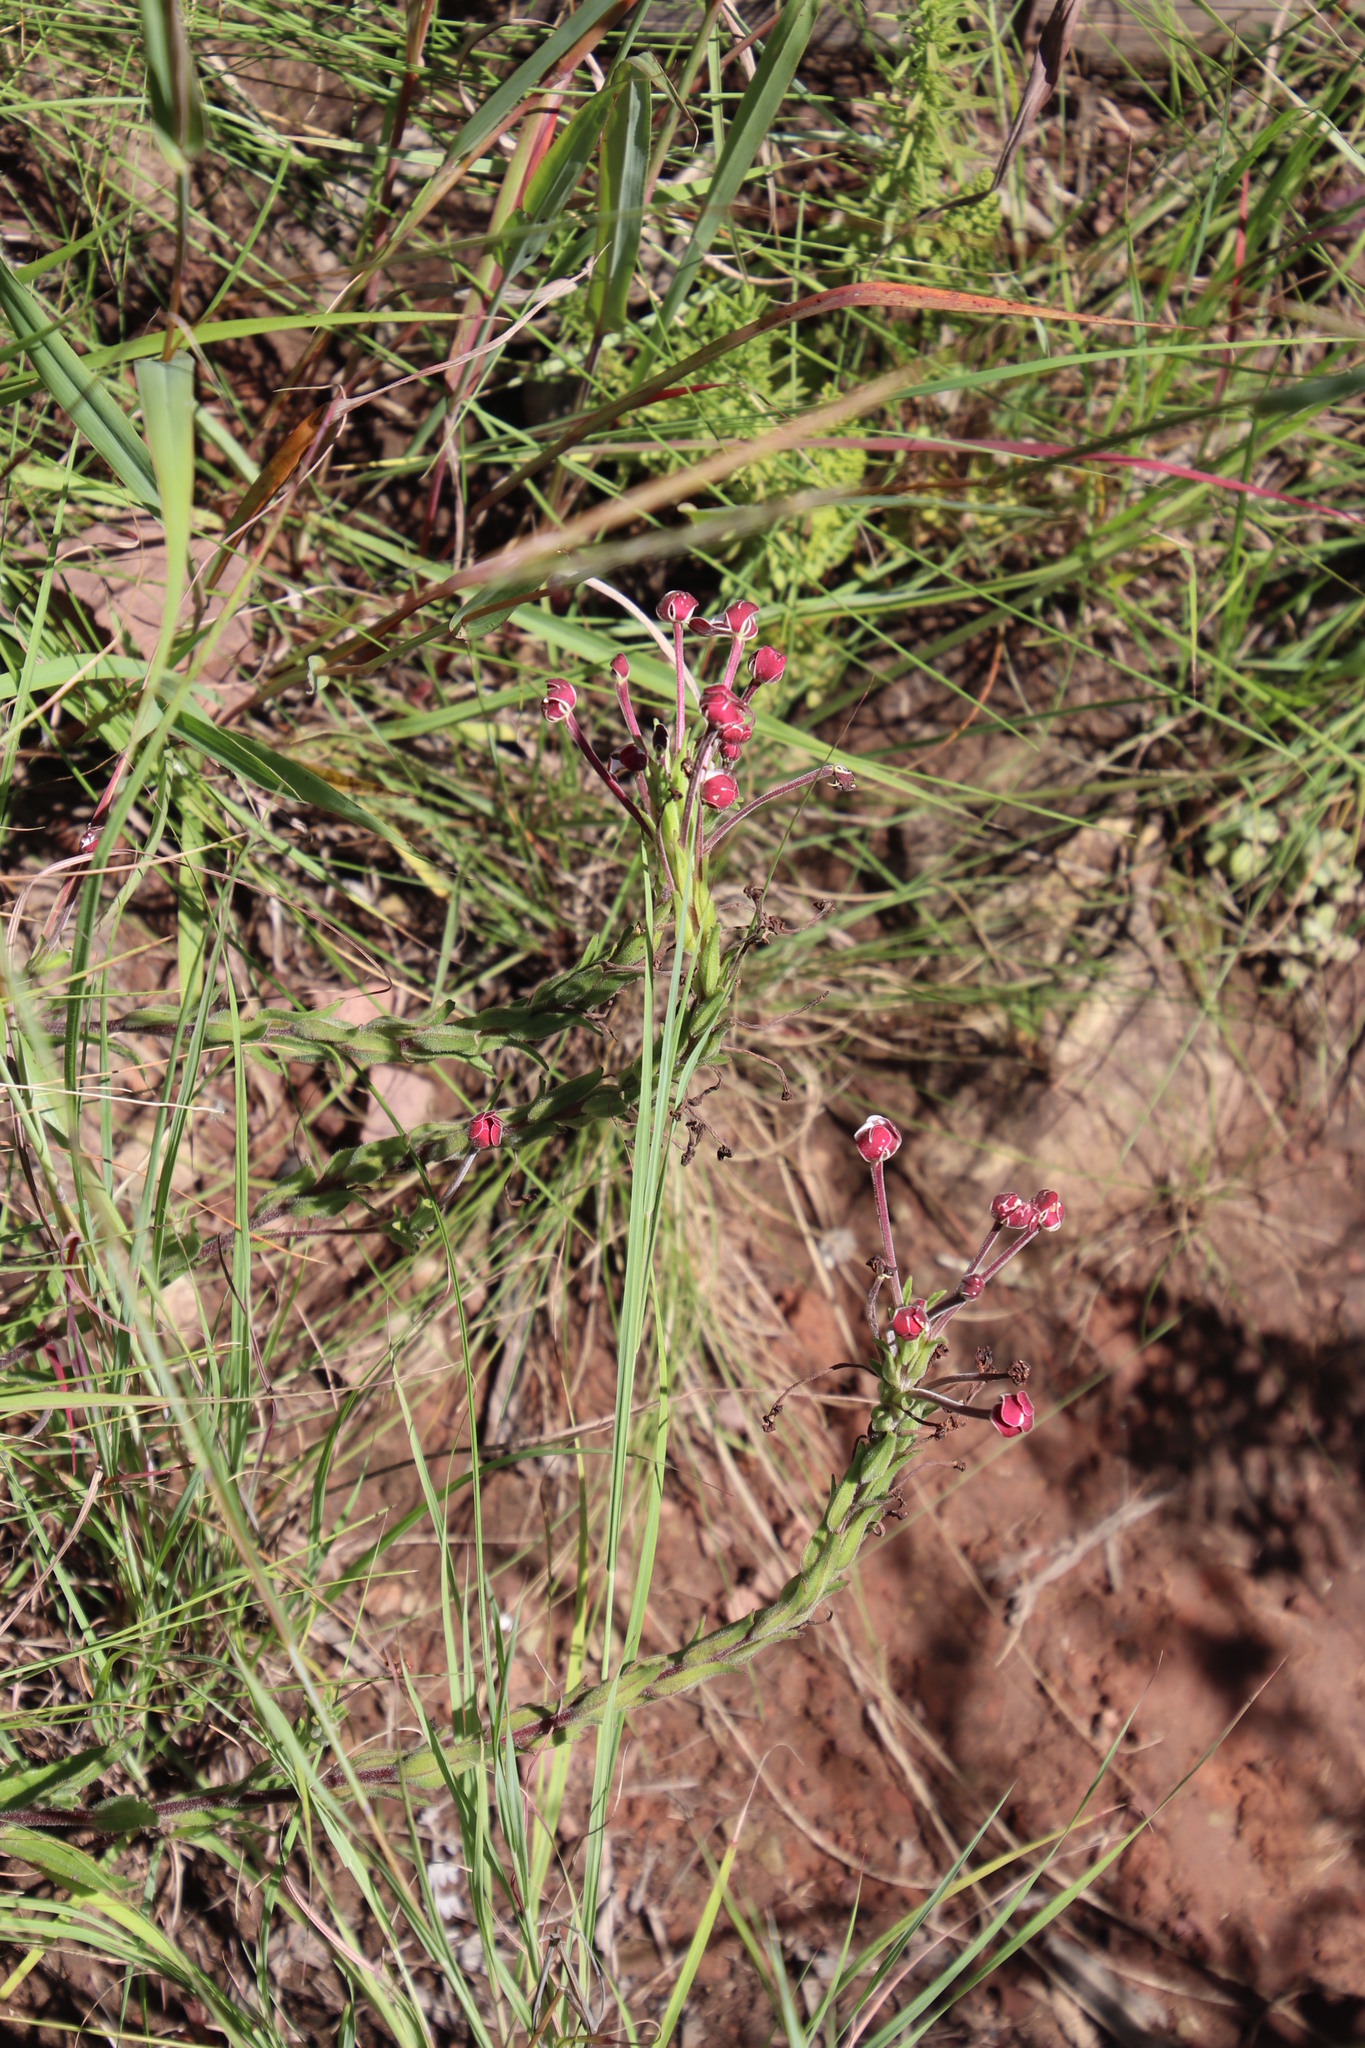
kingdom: Plantae
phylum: Tracheophyta
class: Magnoliopsida
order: Lamiales
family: Scrophulariaceae
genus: Zaluzianskya
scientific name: Zaluzianskya microsiphon
